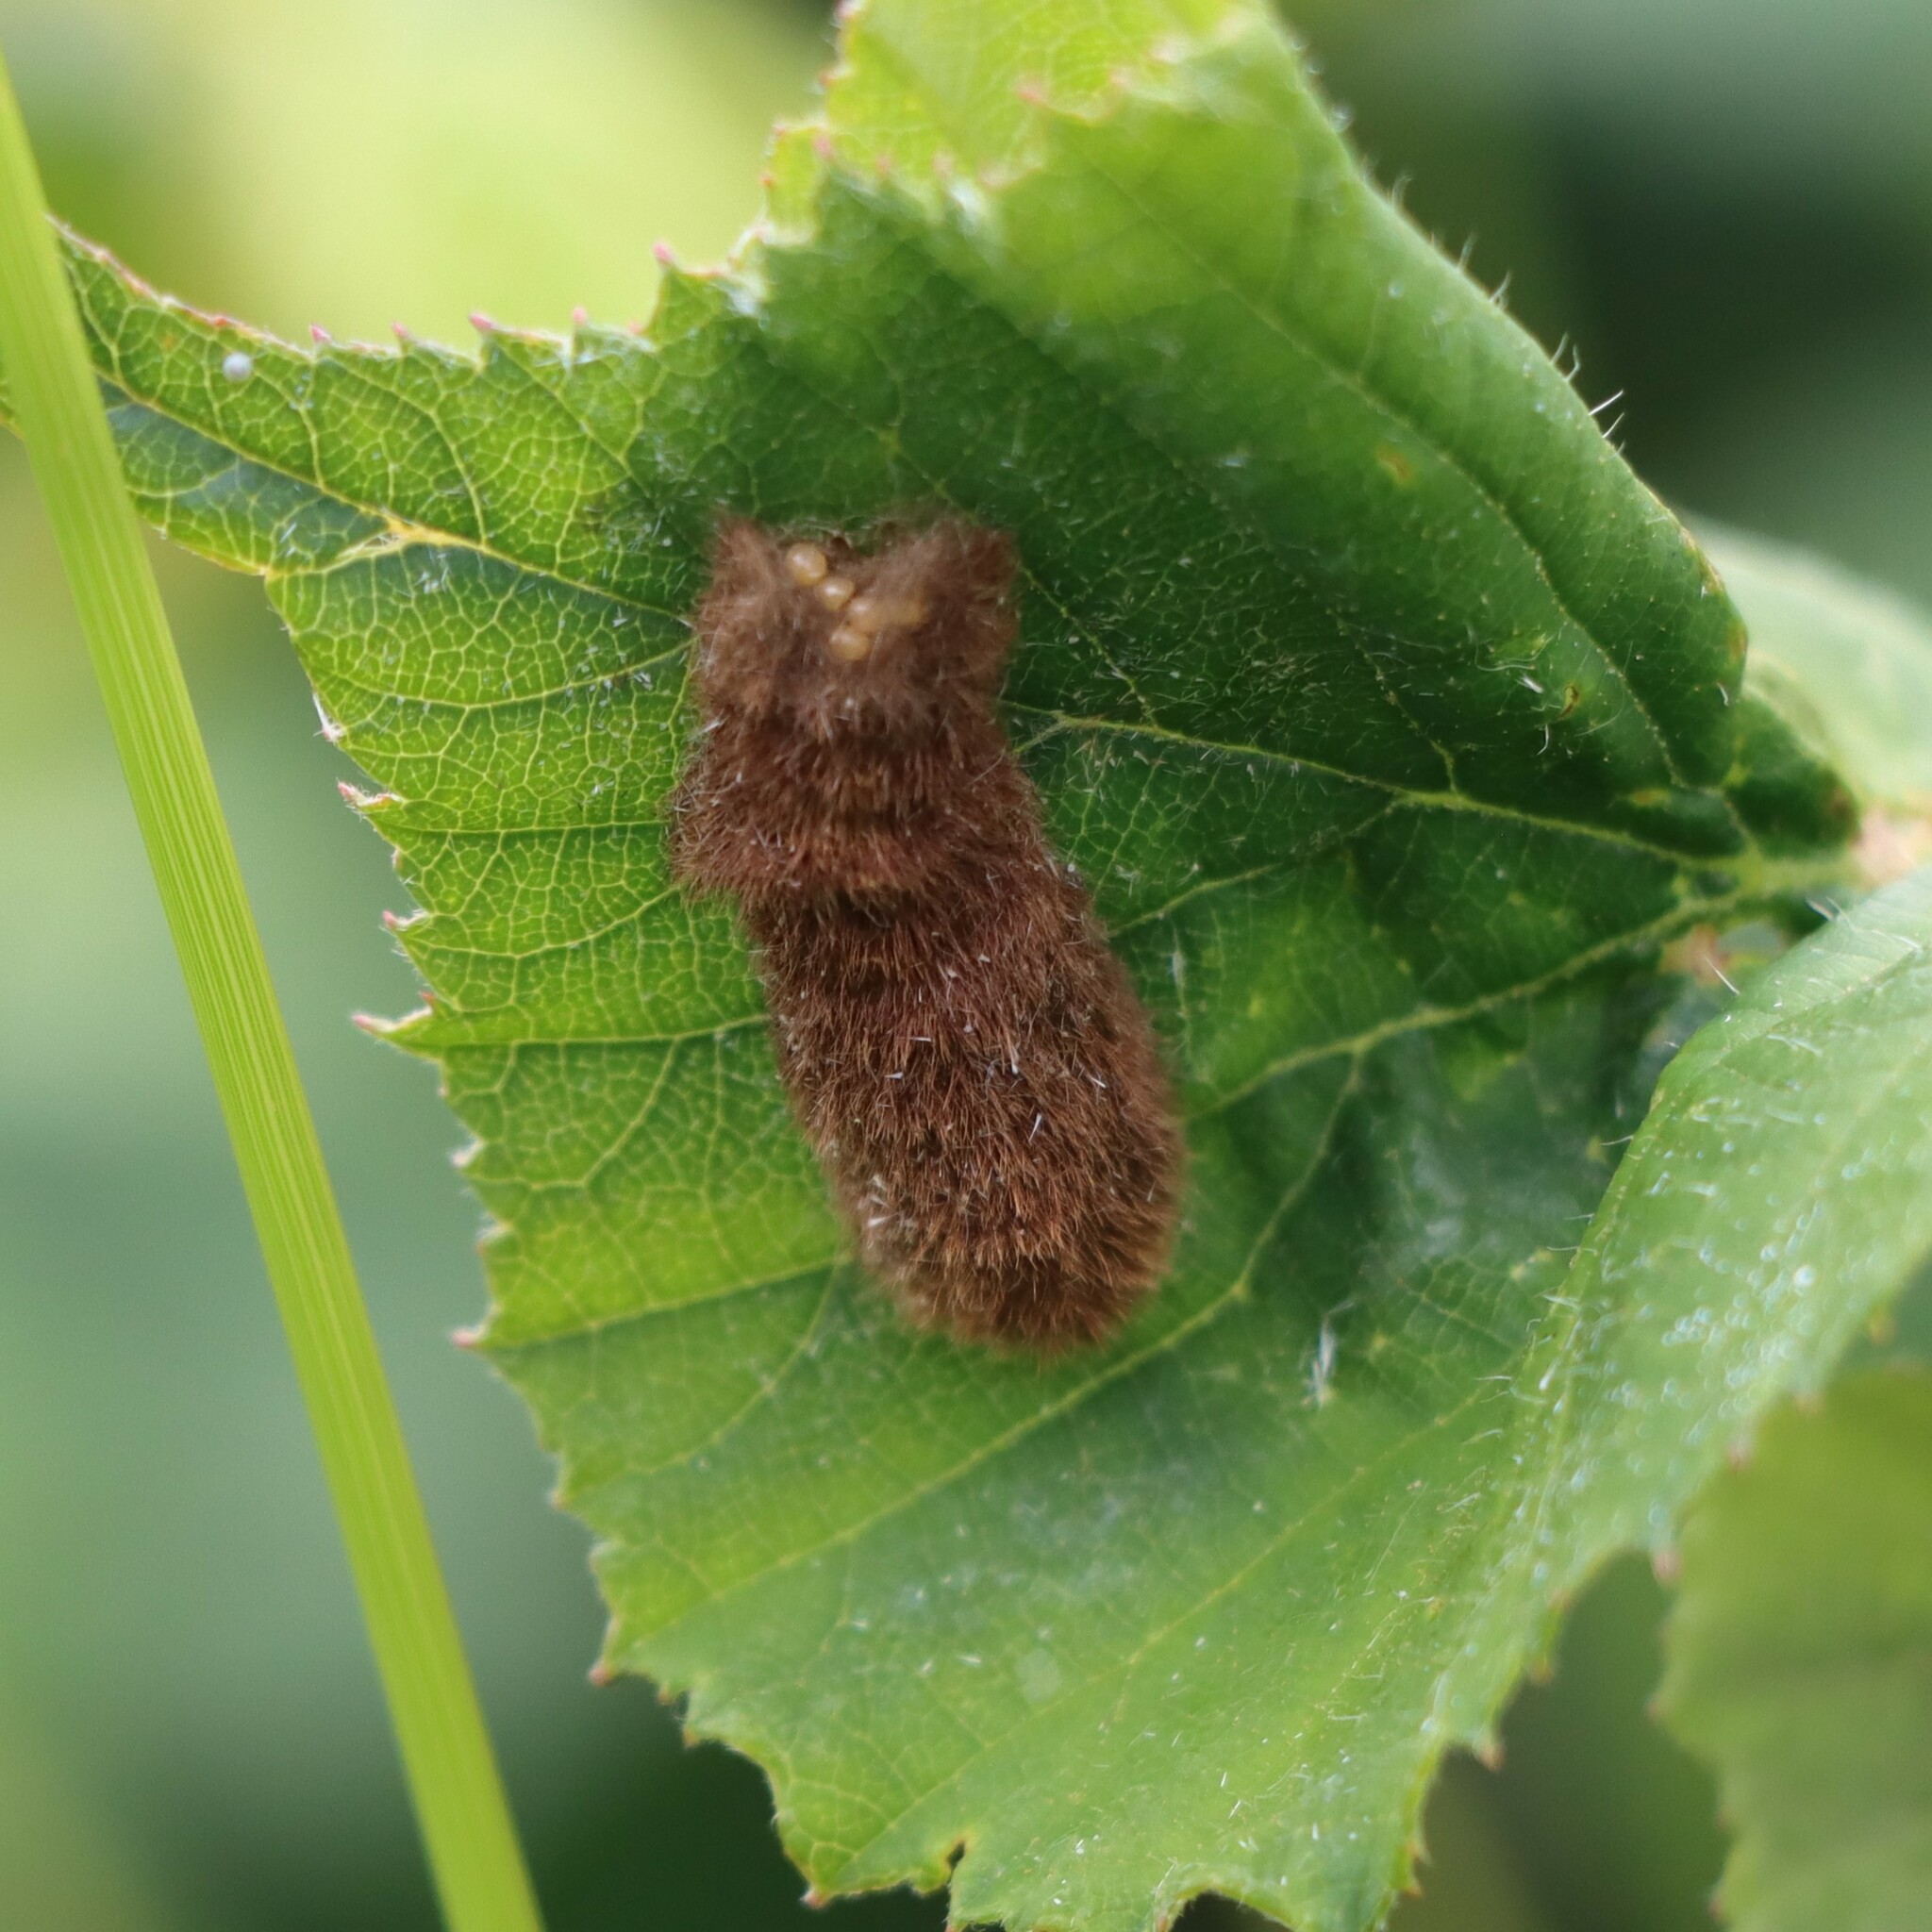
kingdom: Animalia
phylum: Arthropoda
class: Insecta
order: Lepidoptera
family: Erebidae
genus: Euproctis
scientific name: Euproctis chrysorrhoea
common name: Brown-tail
